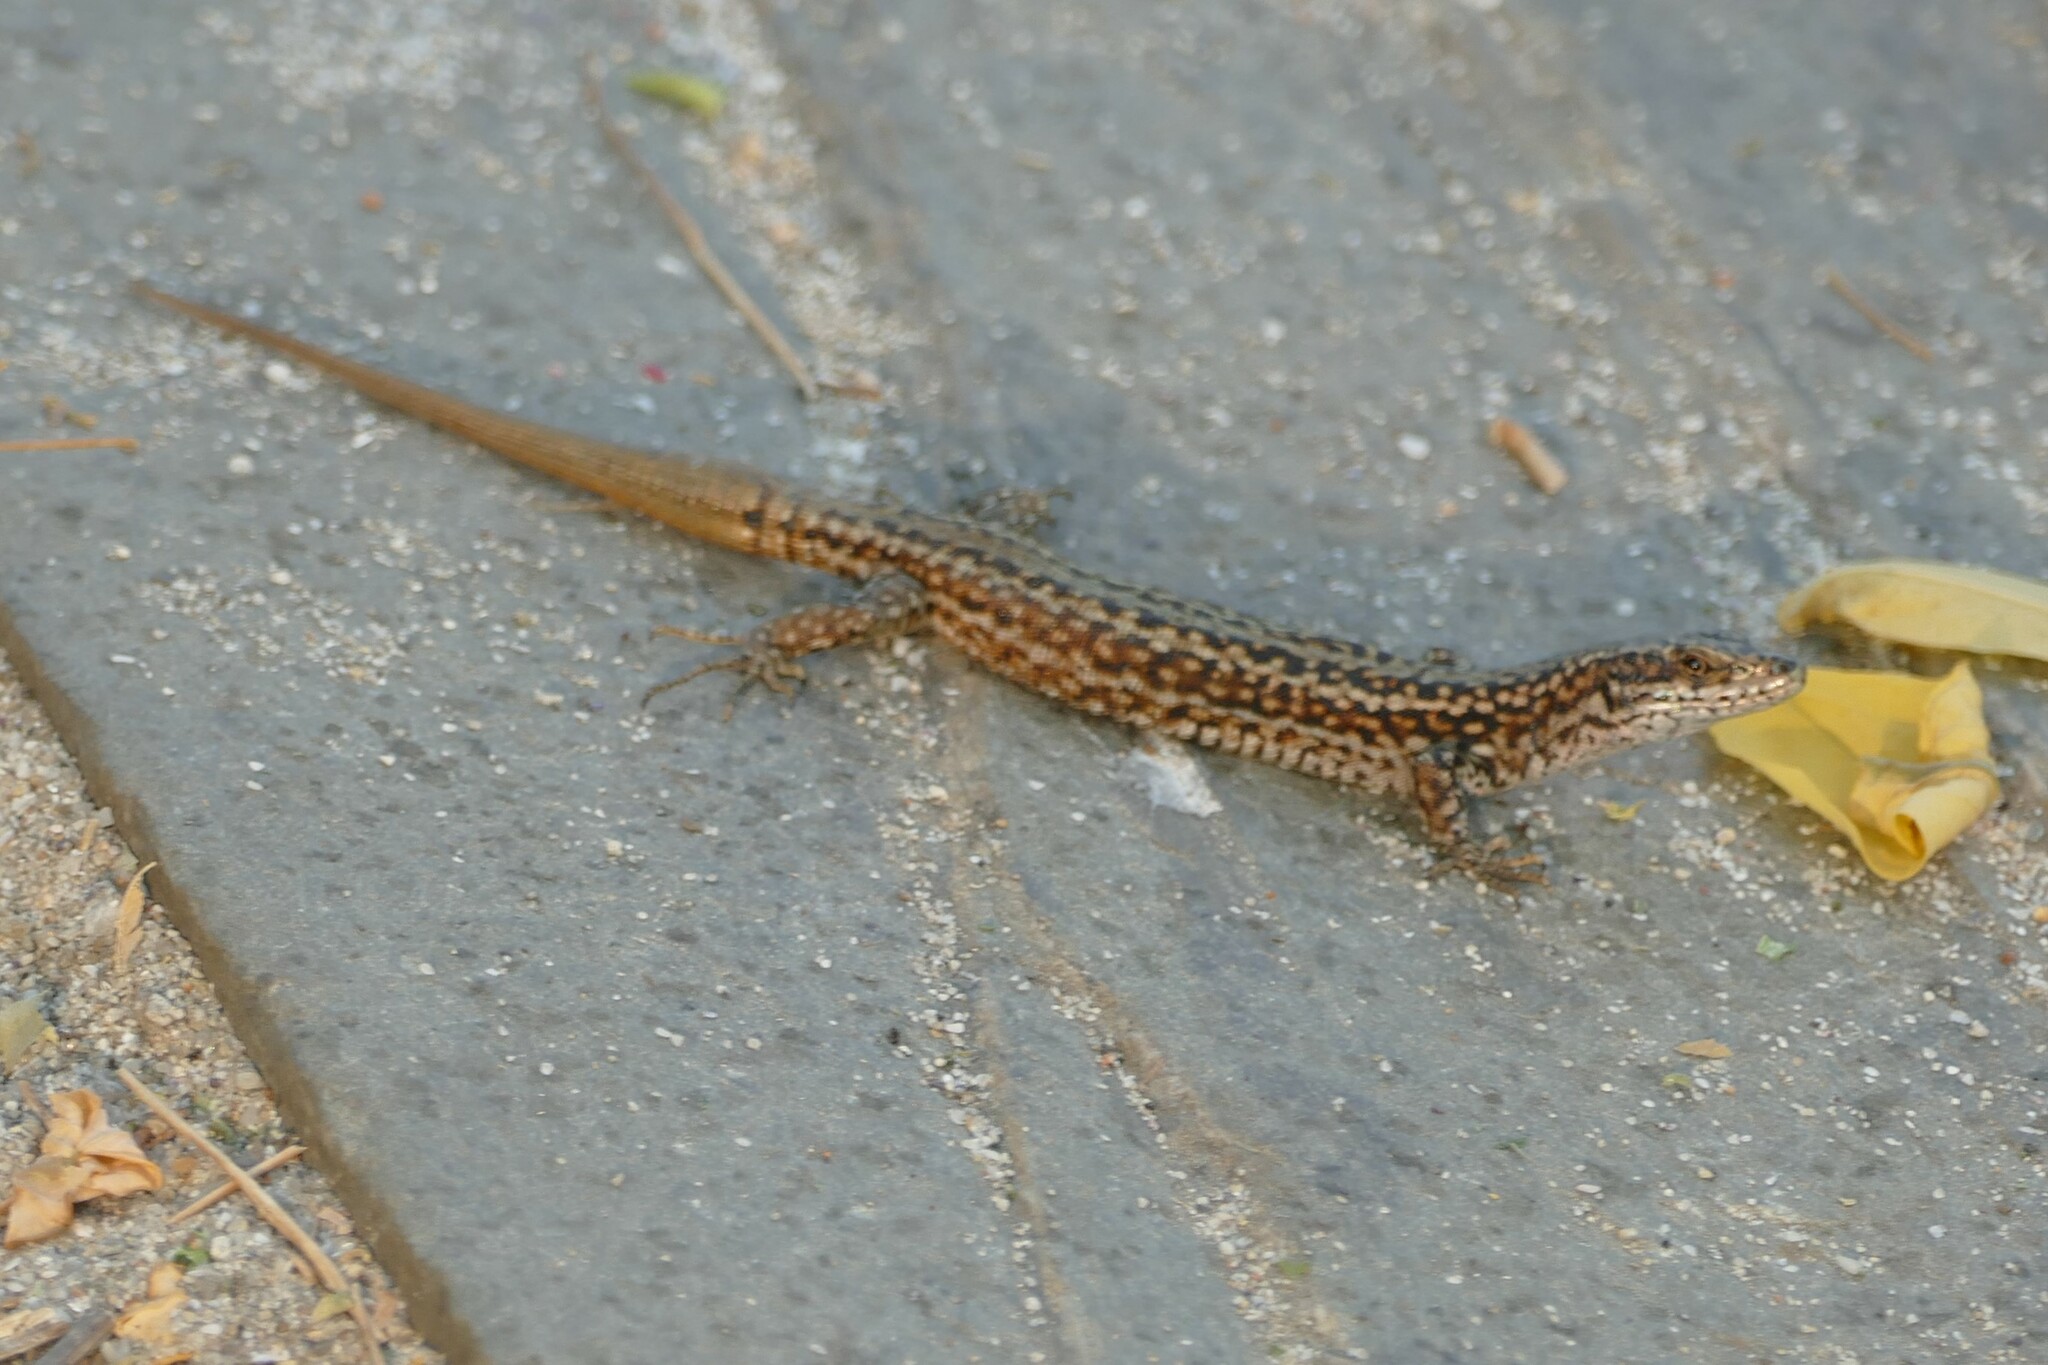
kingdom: Animalia
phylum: Chordata
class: Squamata
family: Lacertidae
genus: Podarcis
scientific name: Podarcis
